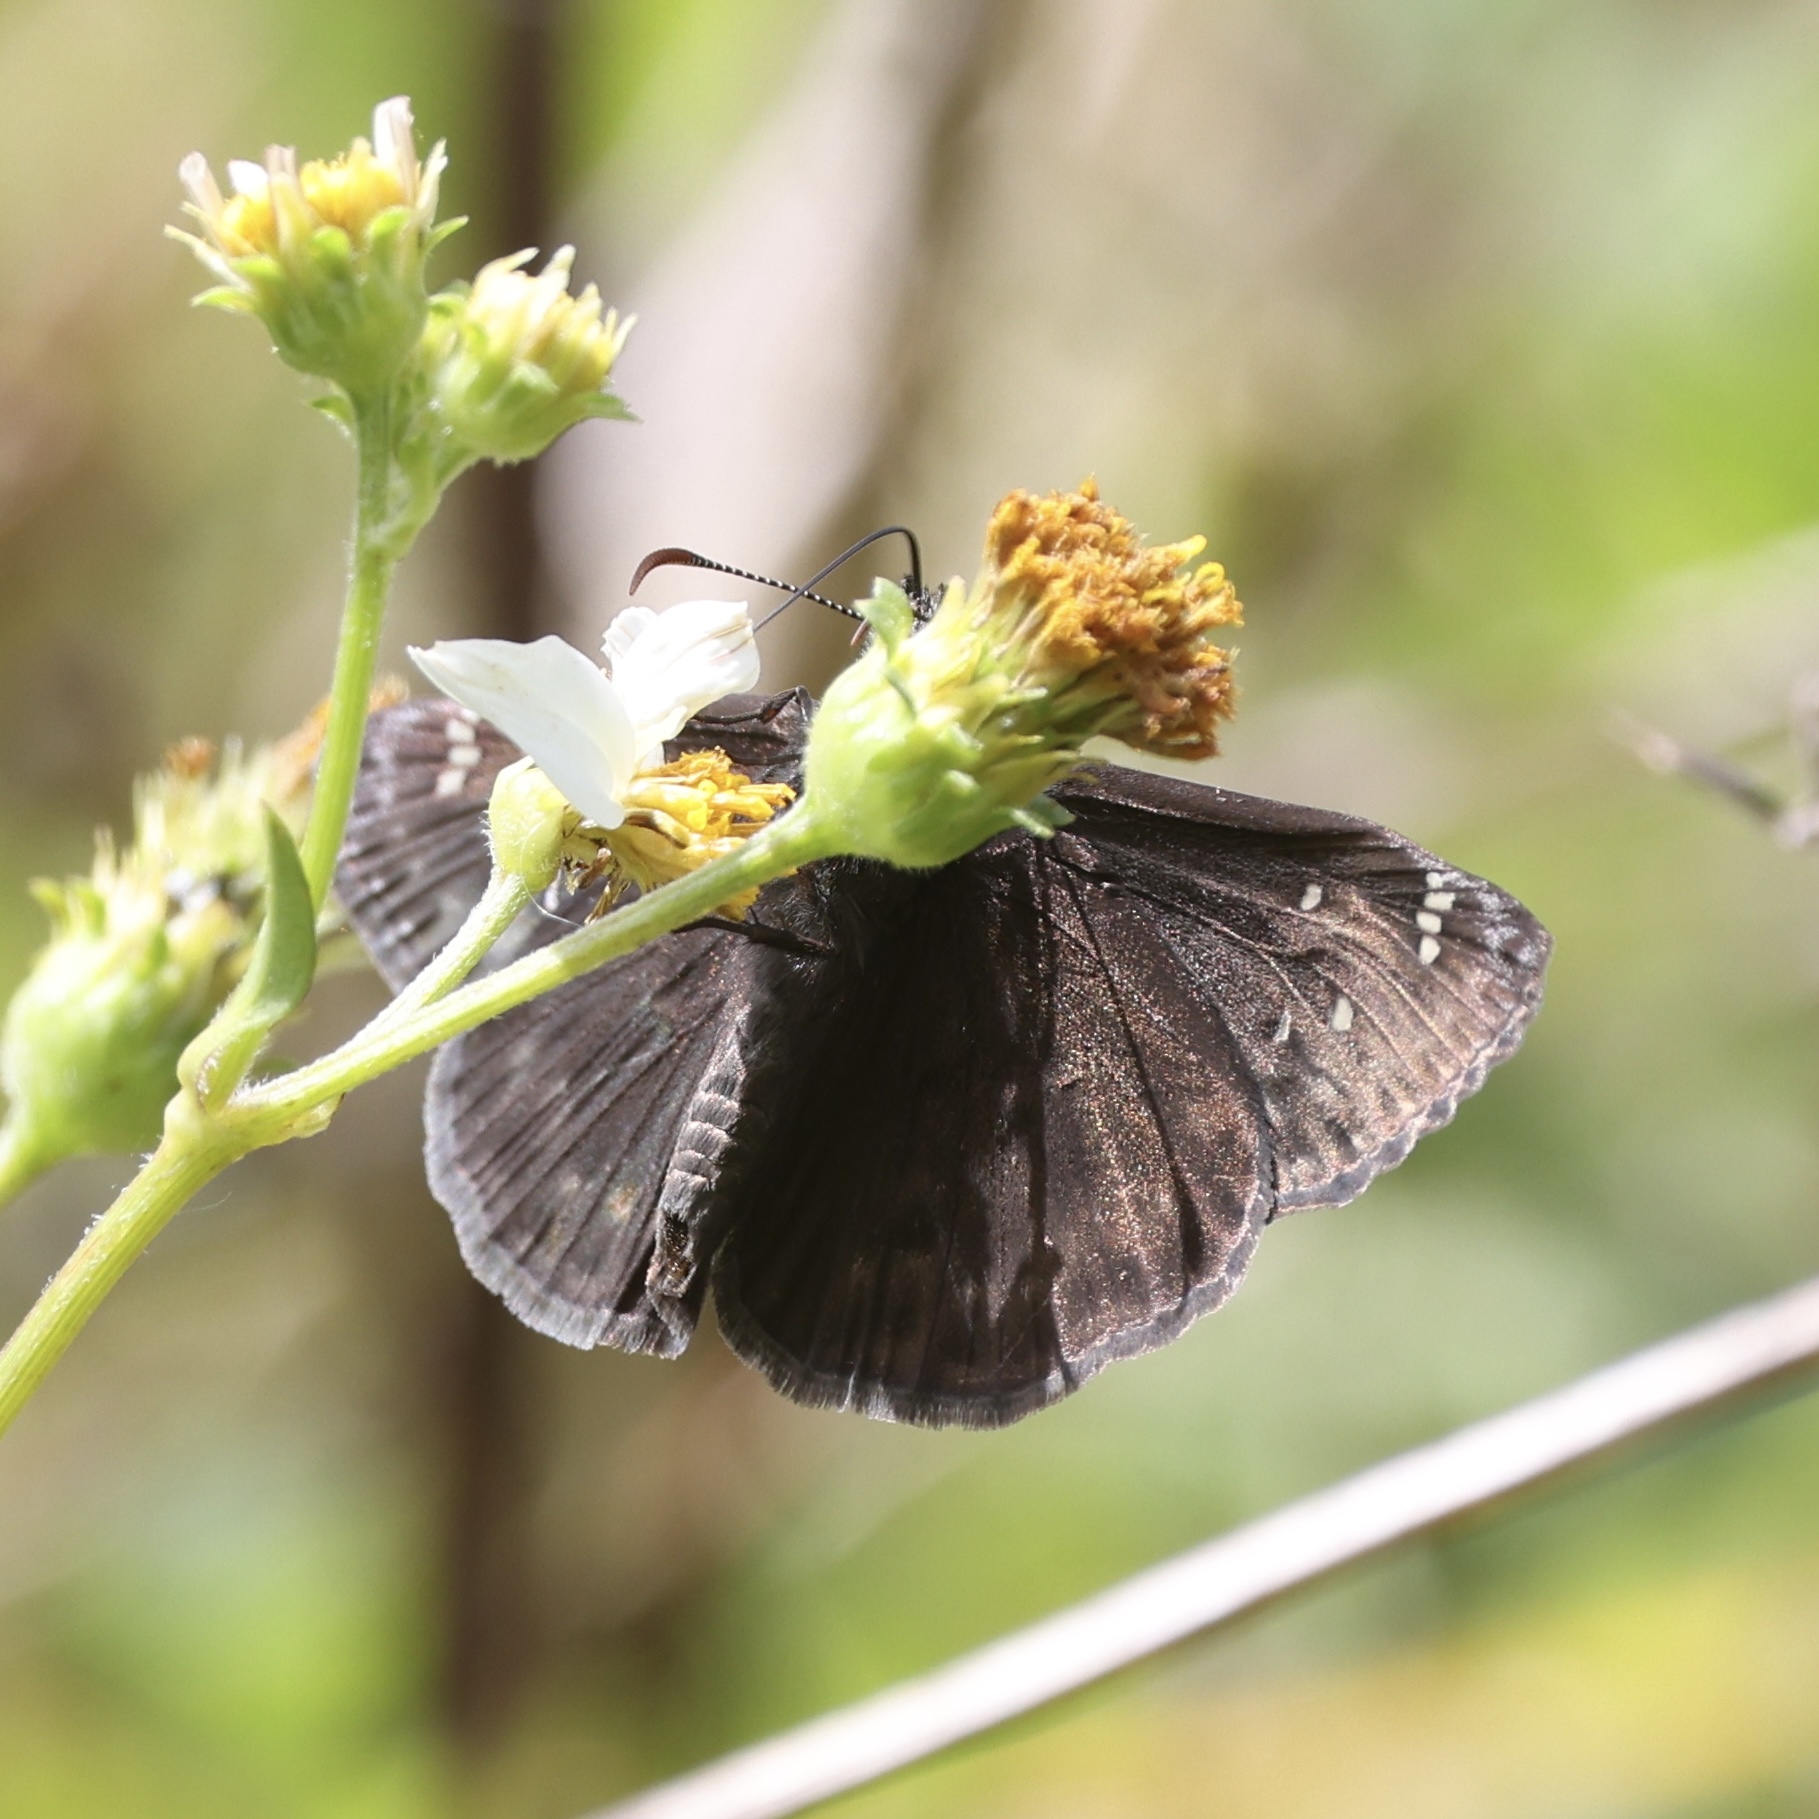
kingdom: Animalia
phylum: Arthropoda
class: Insecta
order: Lepidoptera
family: Hesperiidae
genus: Erynnis
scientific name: Erynnis zarucco
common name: Zarucco duskywing
